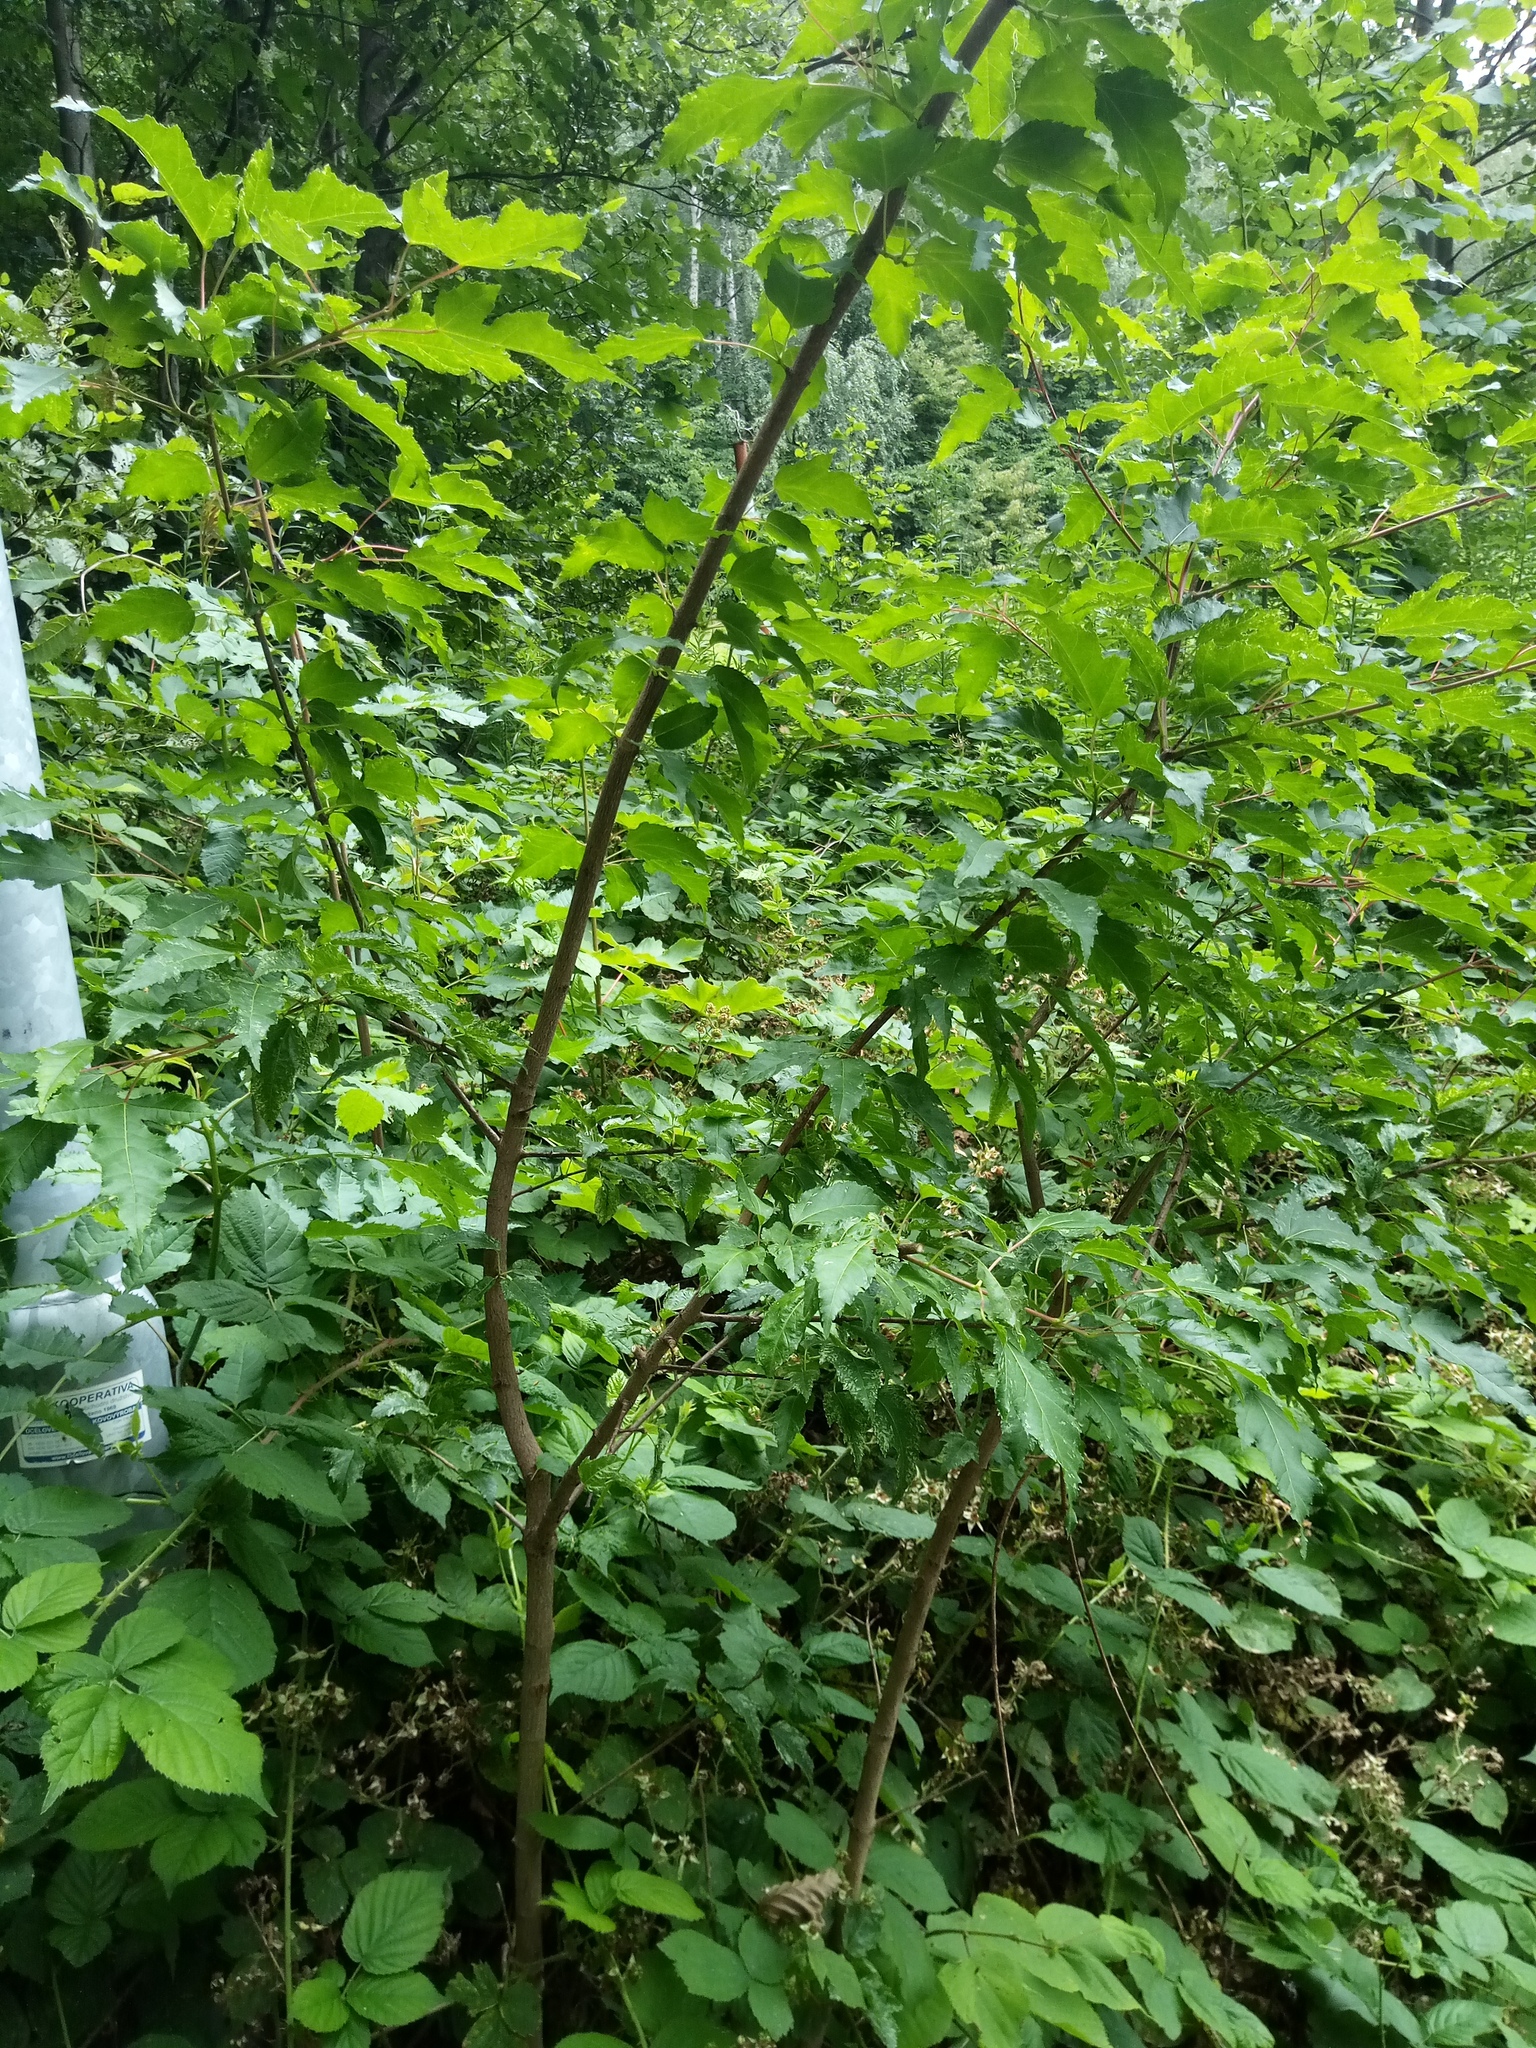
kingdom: Plantae
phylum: Tracheophyta
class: Magnoliopsida
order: Sapindales
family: Sapindaceae
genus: Acer
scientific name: Acer tataricum
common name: Tartar maple
